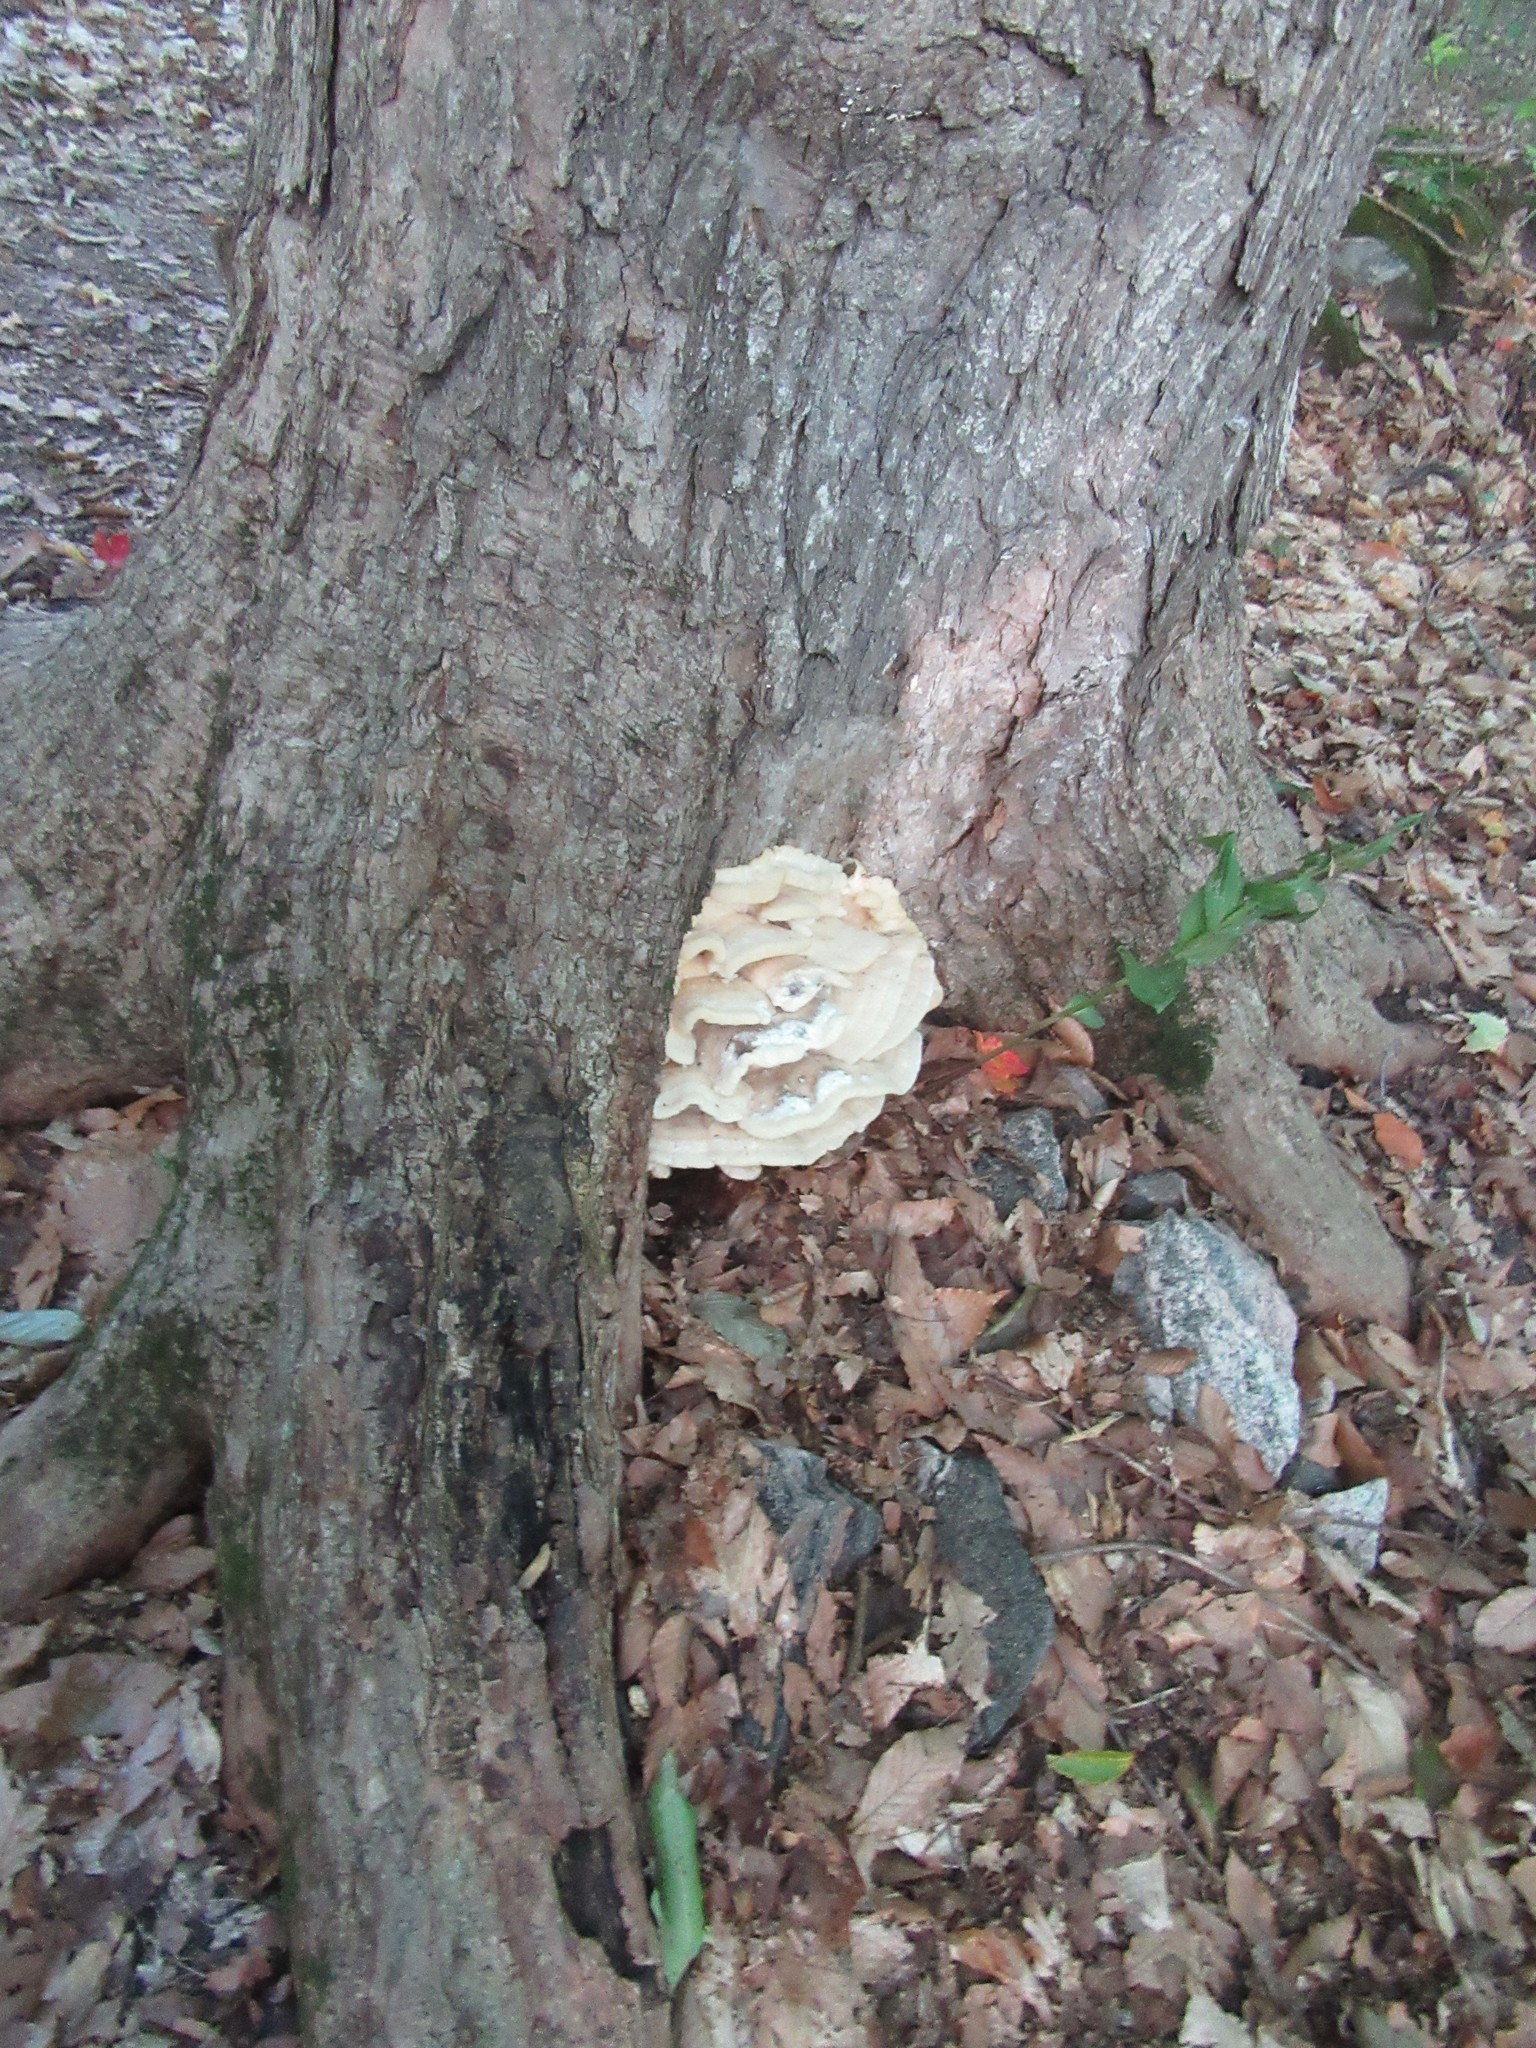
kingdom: Fungi
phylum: Basidiomycota
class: Agaricomycetes
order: Polyporales
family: Meruliaceae
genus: Climacodon
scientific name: Climacodon septentrionalis
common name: Northern tooth
